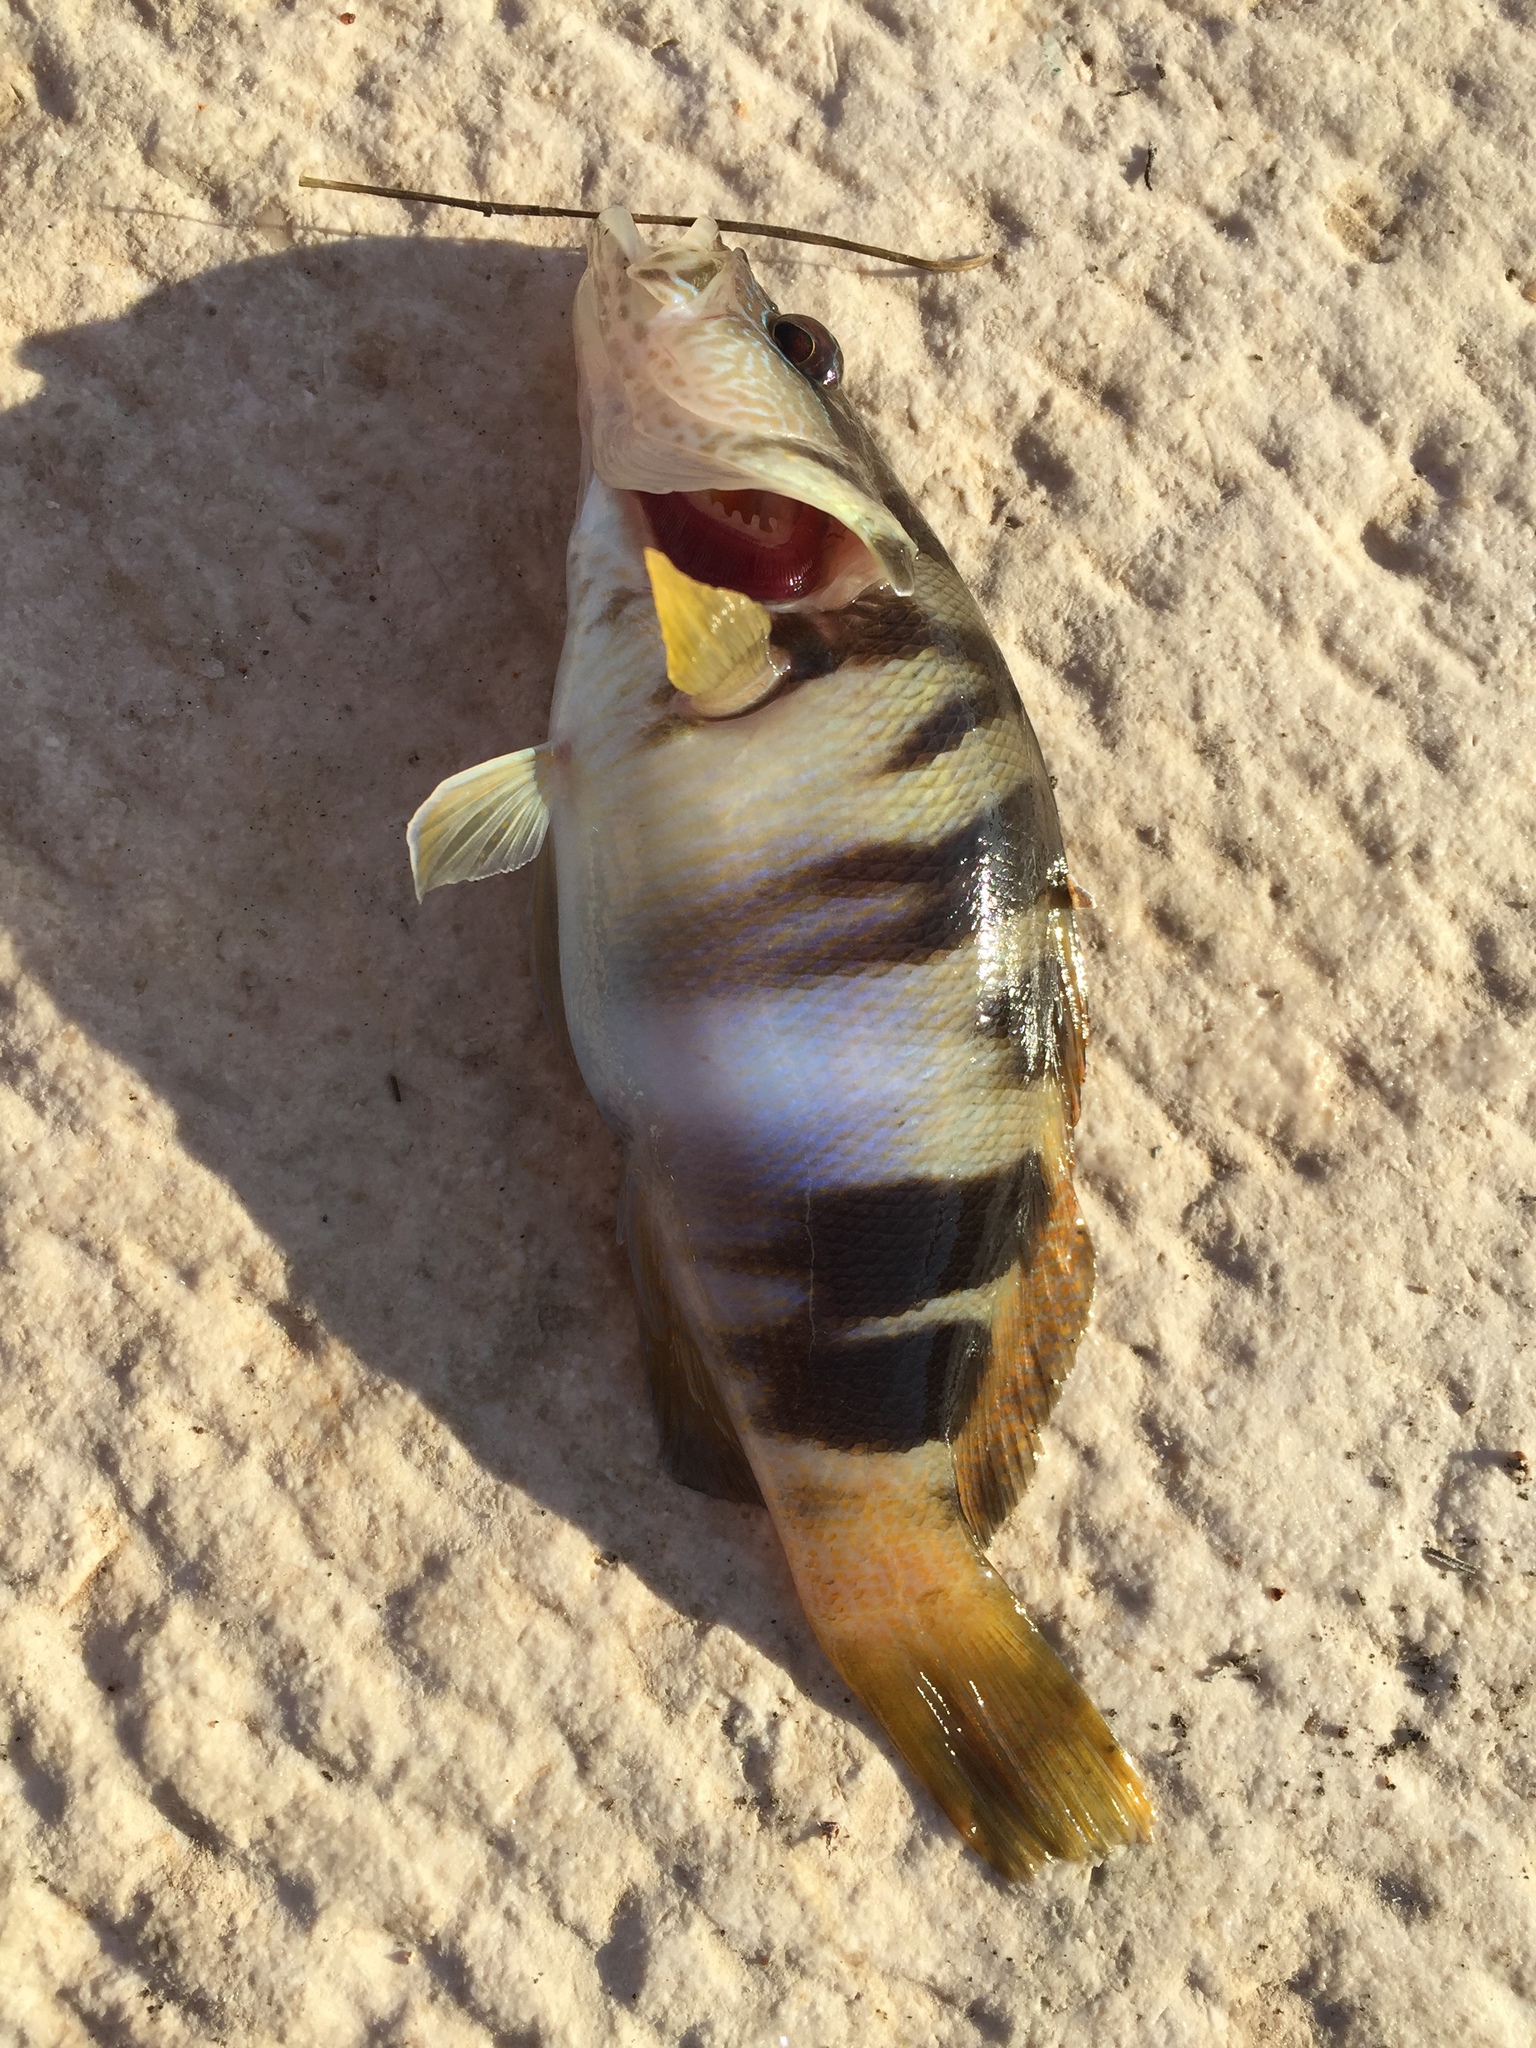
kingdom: Animalia
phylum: Chordata
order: Perciformes
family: Serranidae
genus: Serranus
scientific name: Serranus scriba
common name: Painted comber
